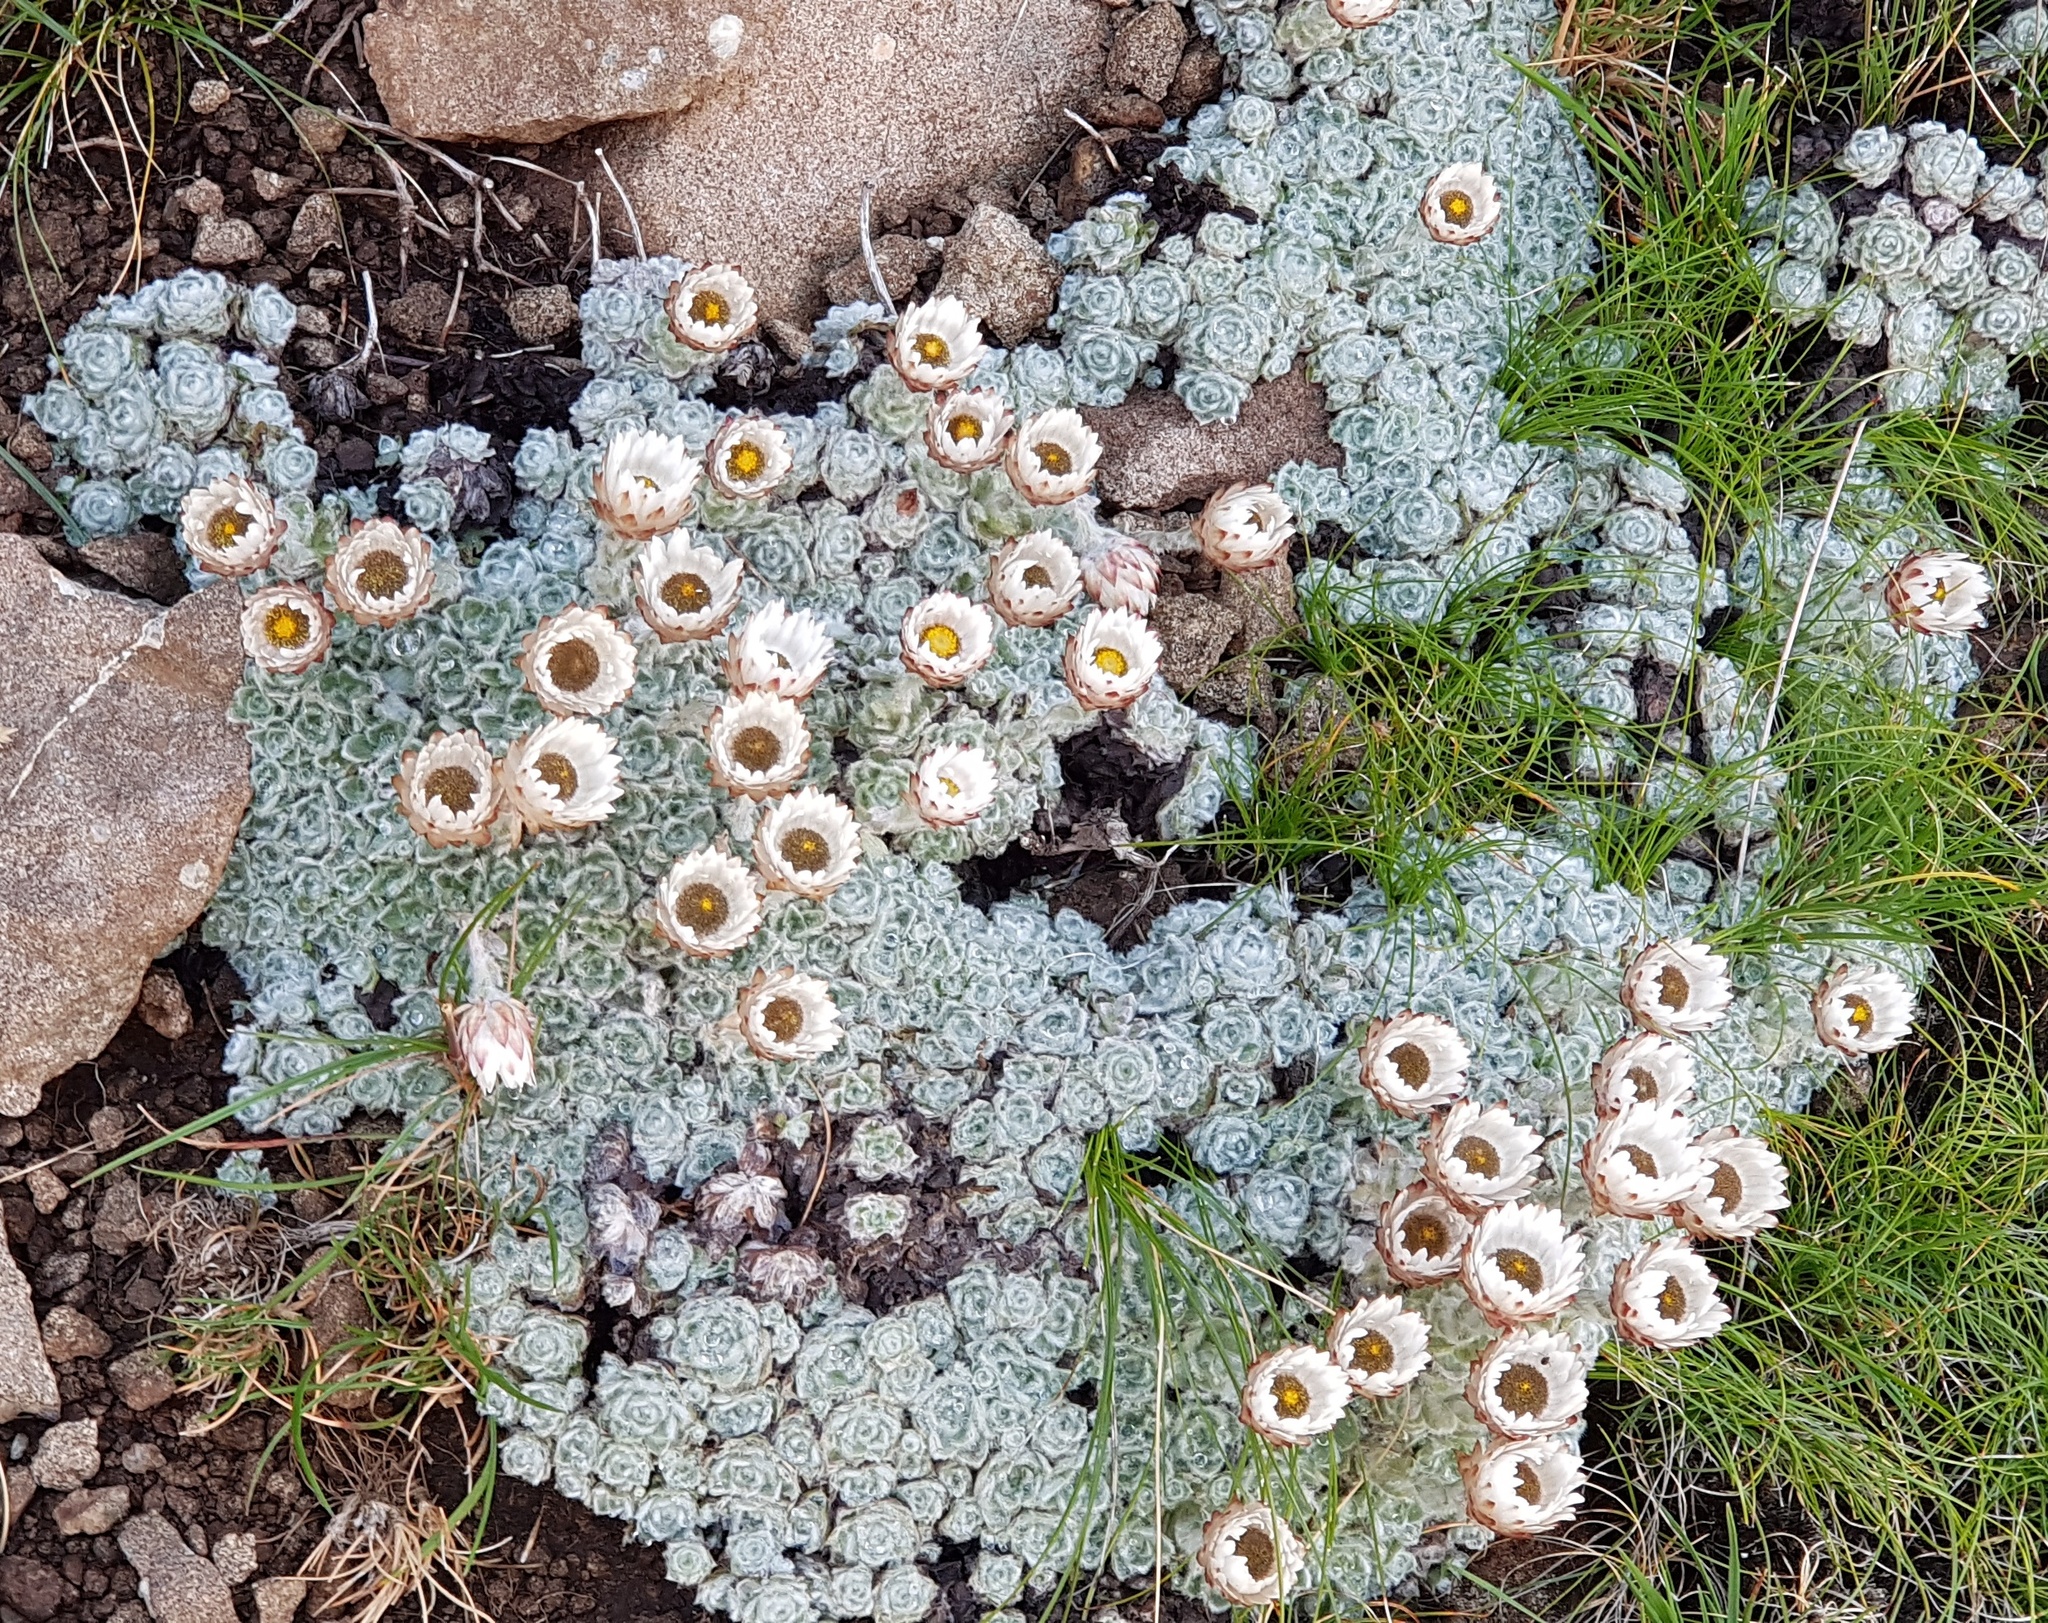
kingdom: Plantae
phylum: Tracheophyta
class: Magnoliopsida
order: Asterales
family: Asteraceae
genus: Helichrysum
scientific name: Helichrysum milfordiae
